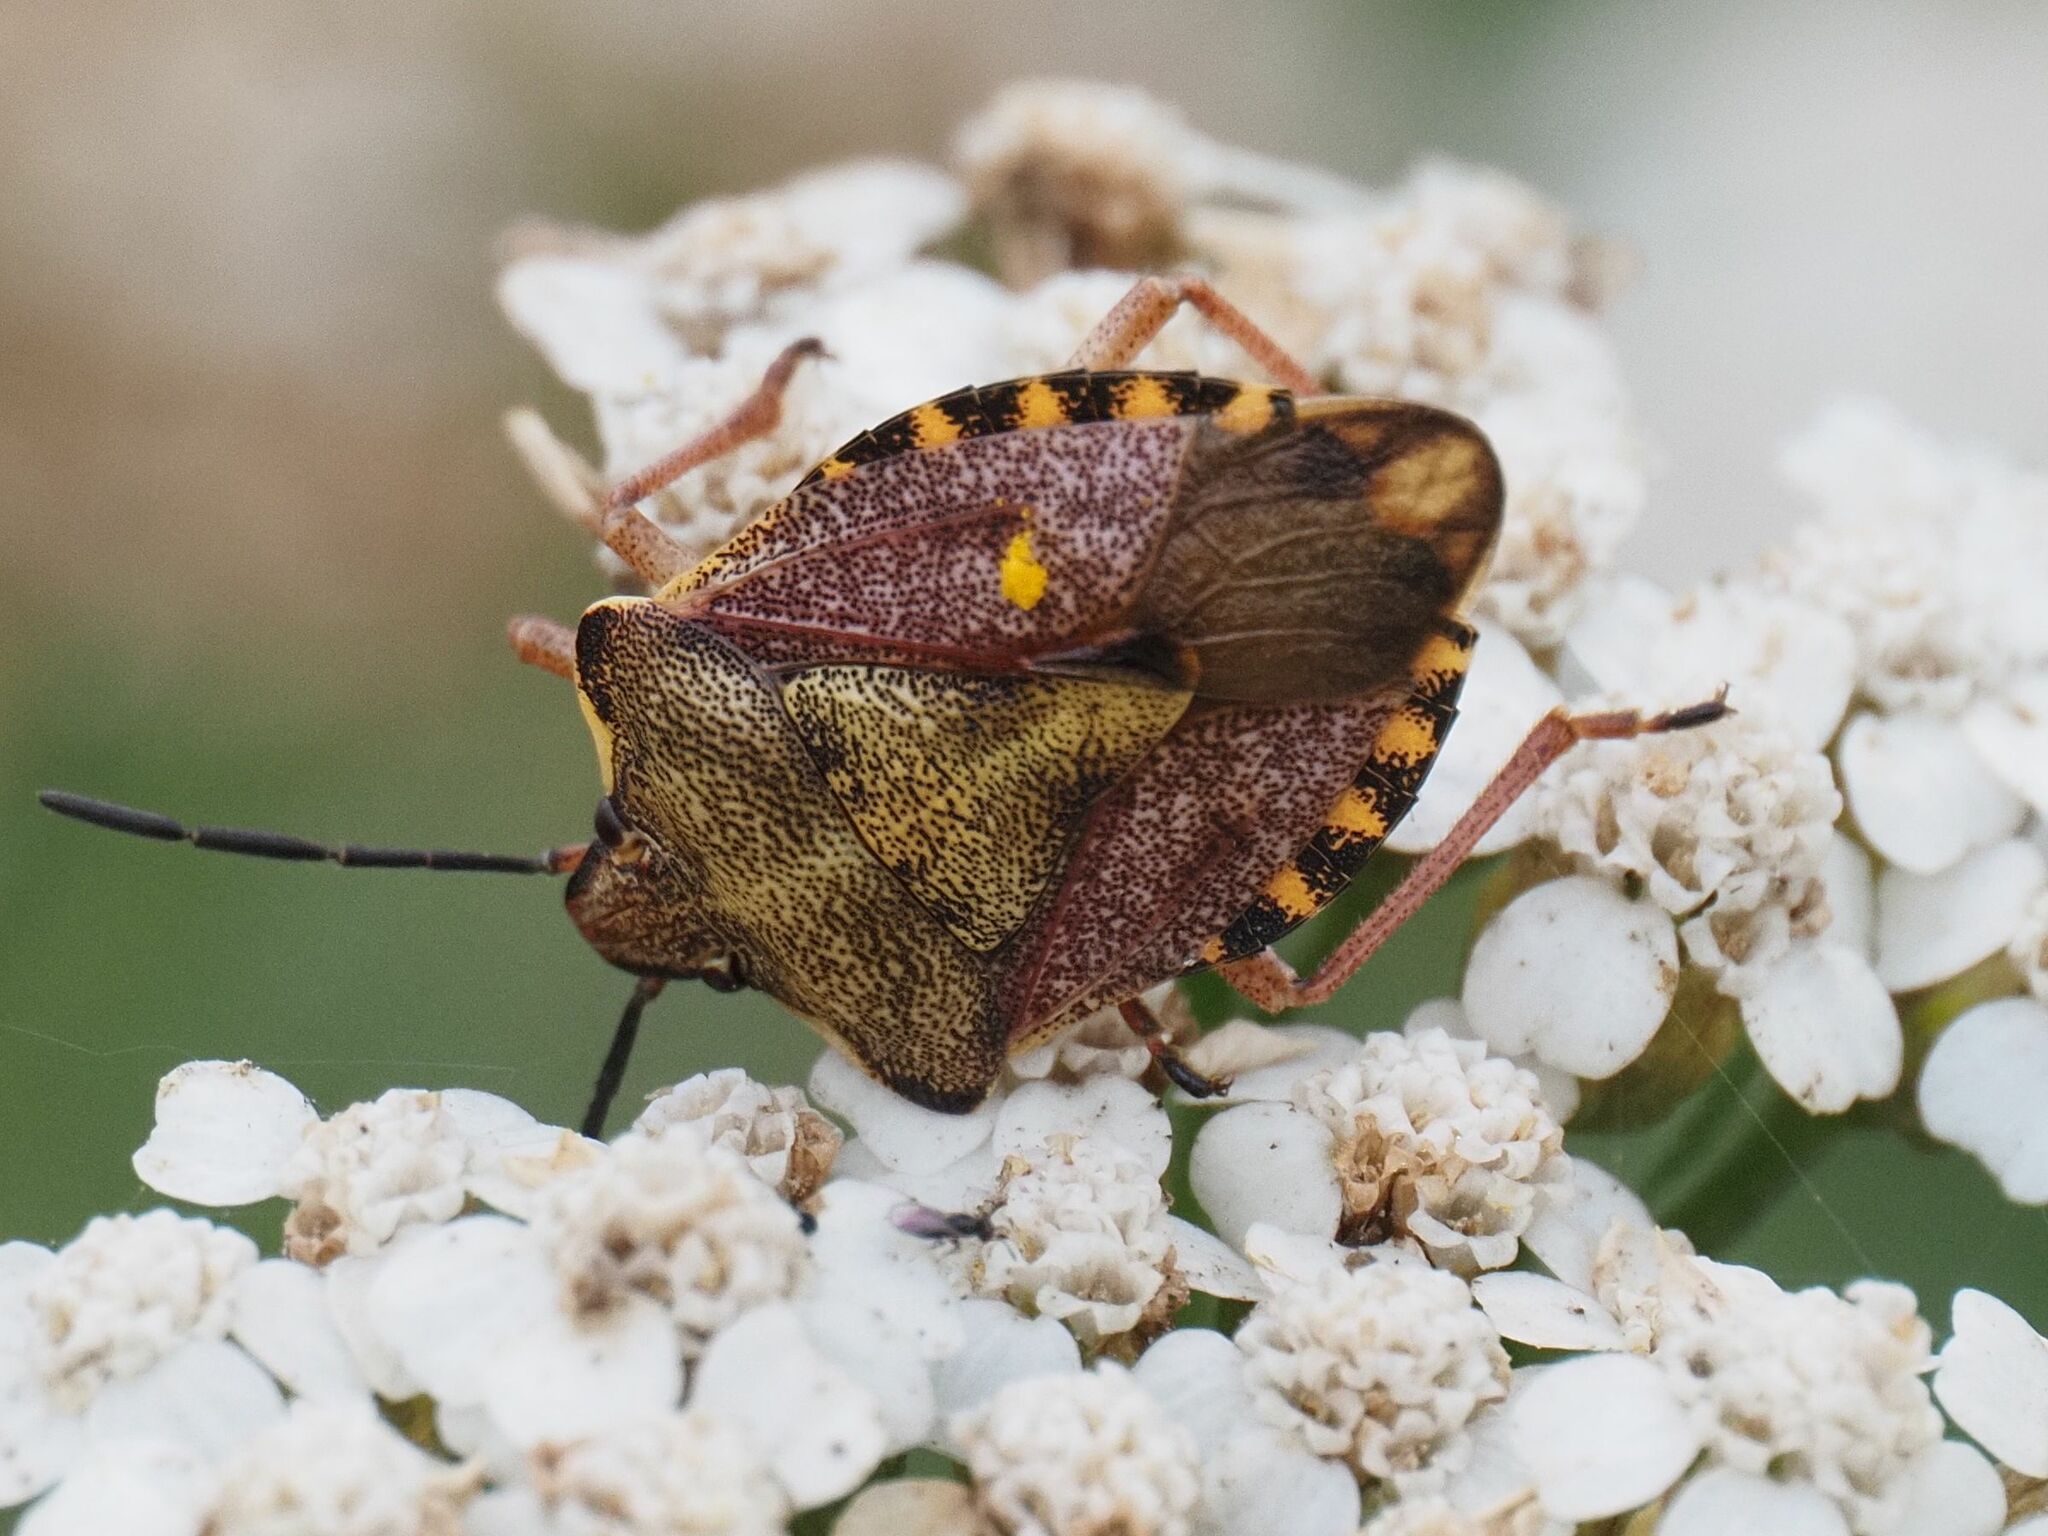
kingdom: Animalia
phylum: Arthropoda
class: Insecta
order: Hemiptera
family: Pentatomidae
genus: Carpocoris
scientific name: Carpocoris purpureipennis
